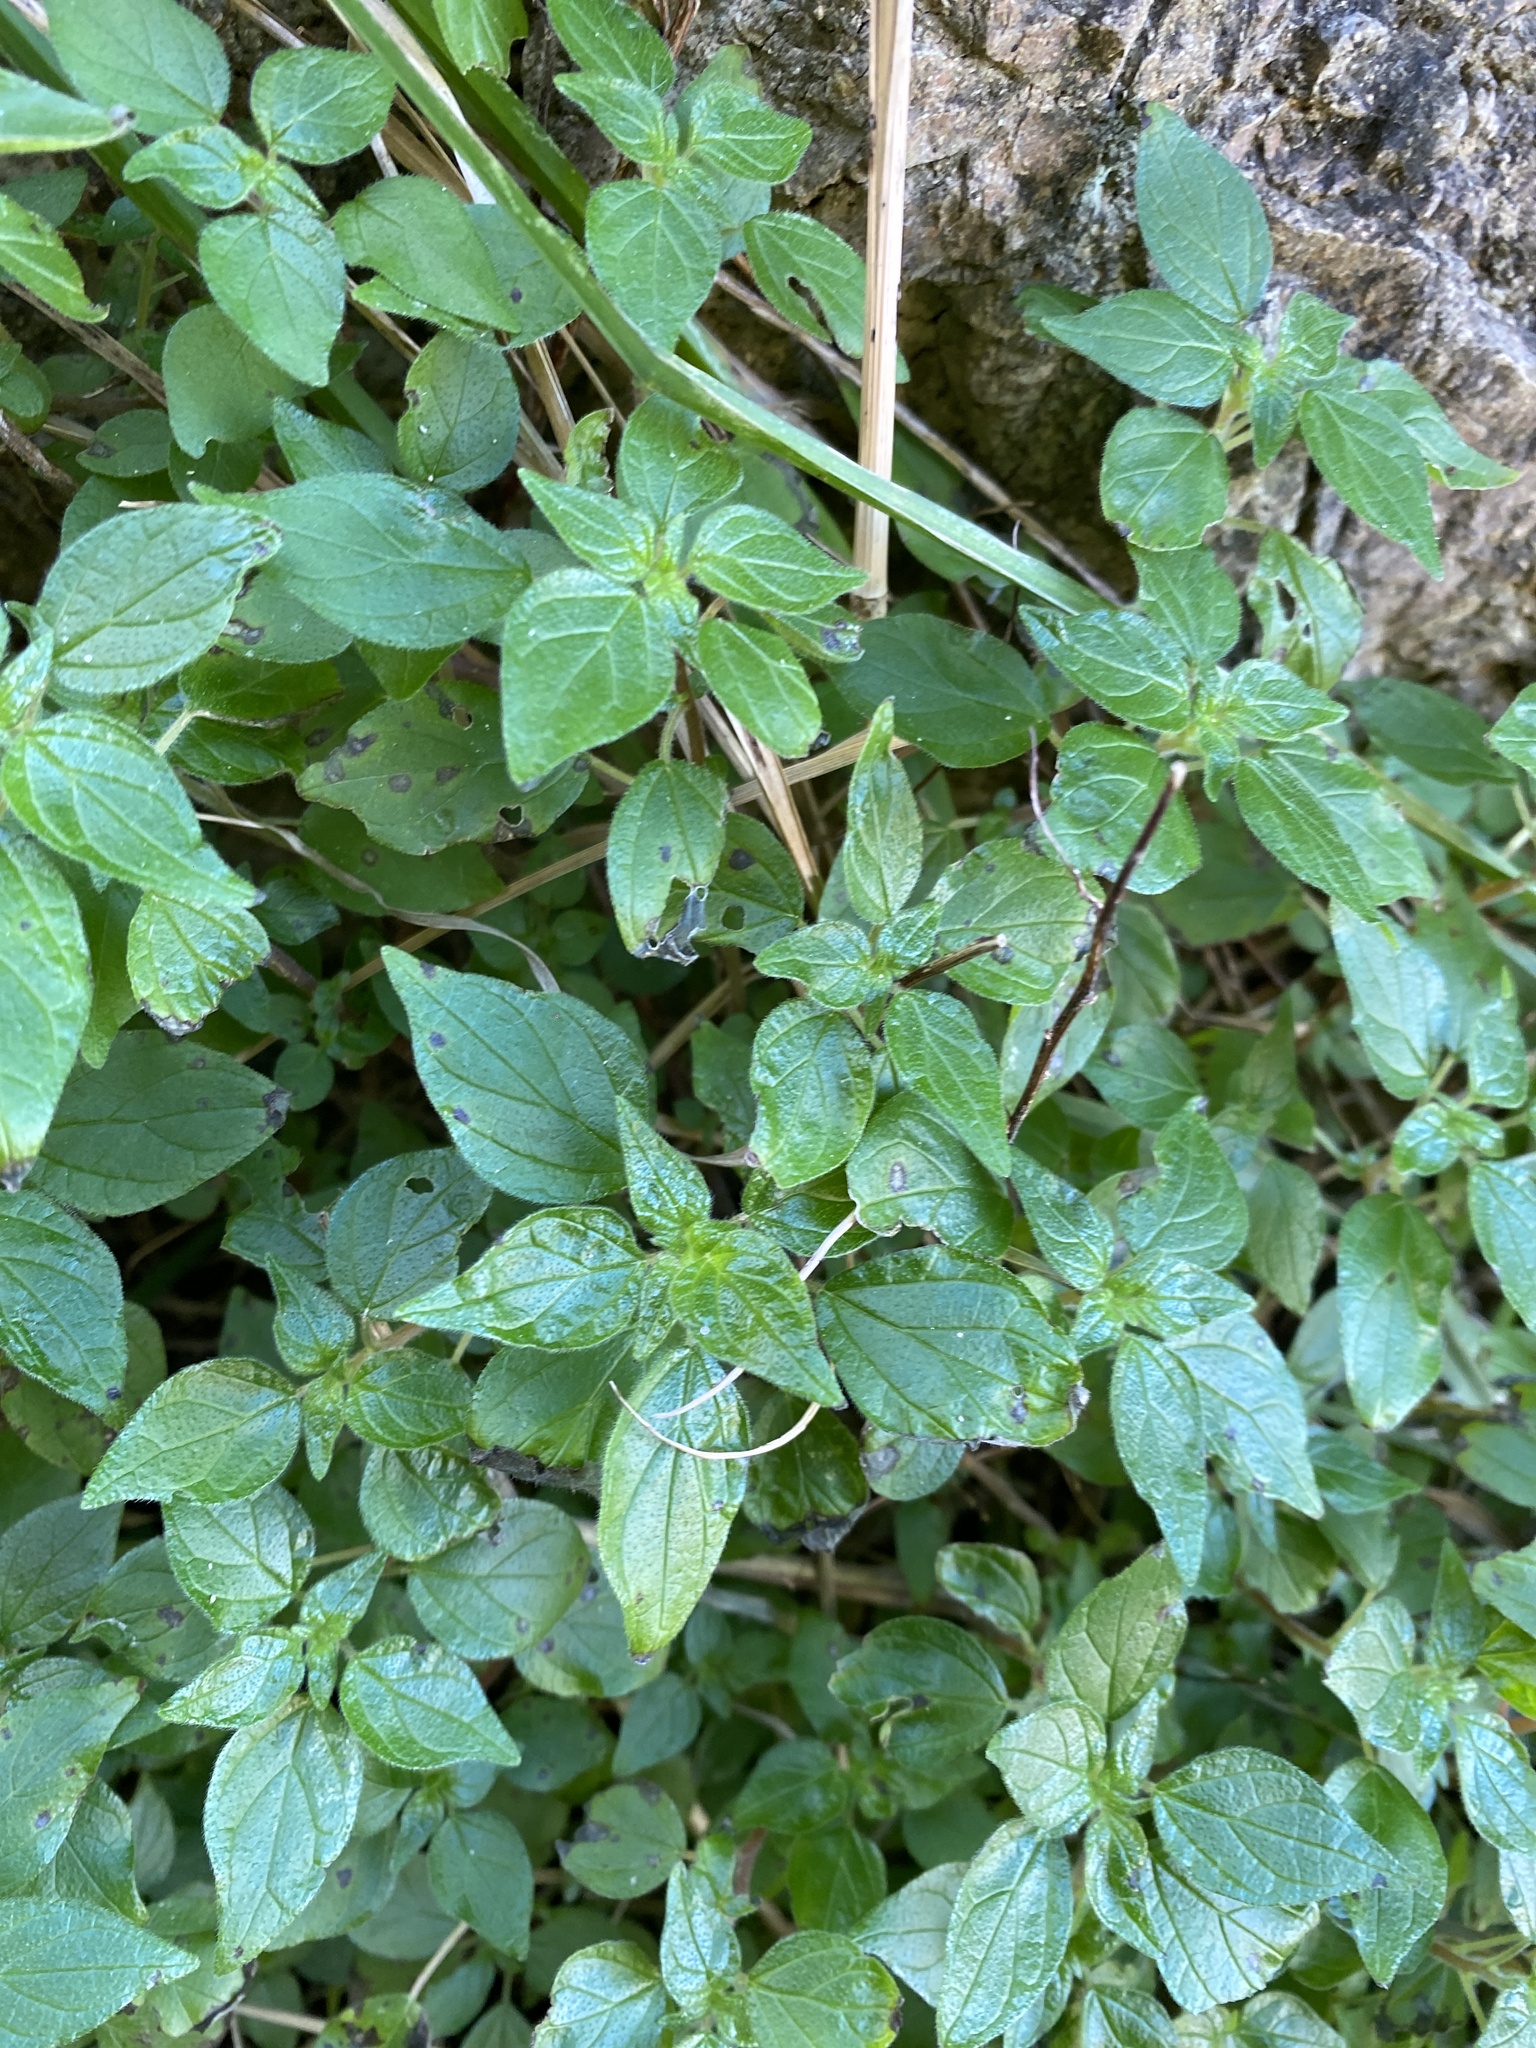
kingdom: Plantae
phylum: Tracheophyta
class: Magnoliopsida
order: Rosales
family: Urticaceae
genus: Parietaria
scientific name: Parietaria judaica
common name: Pellitory-of-the-wall
